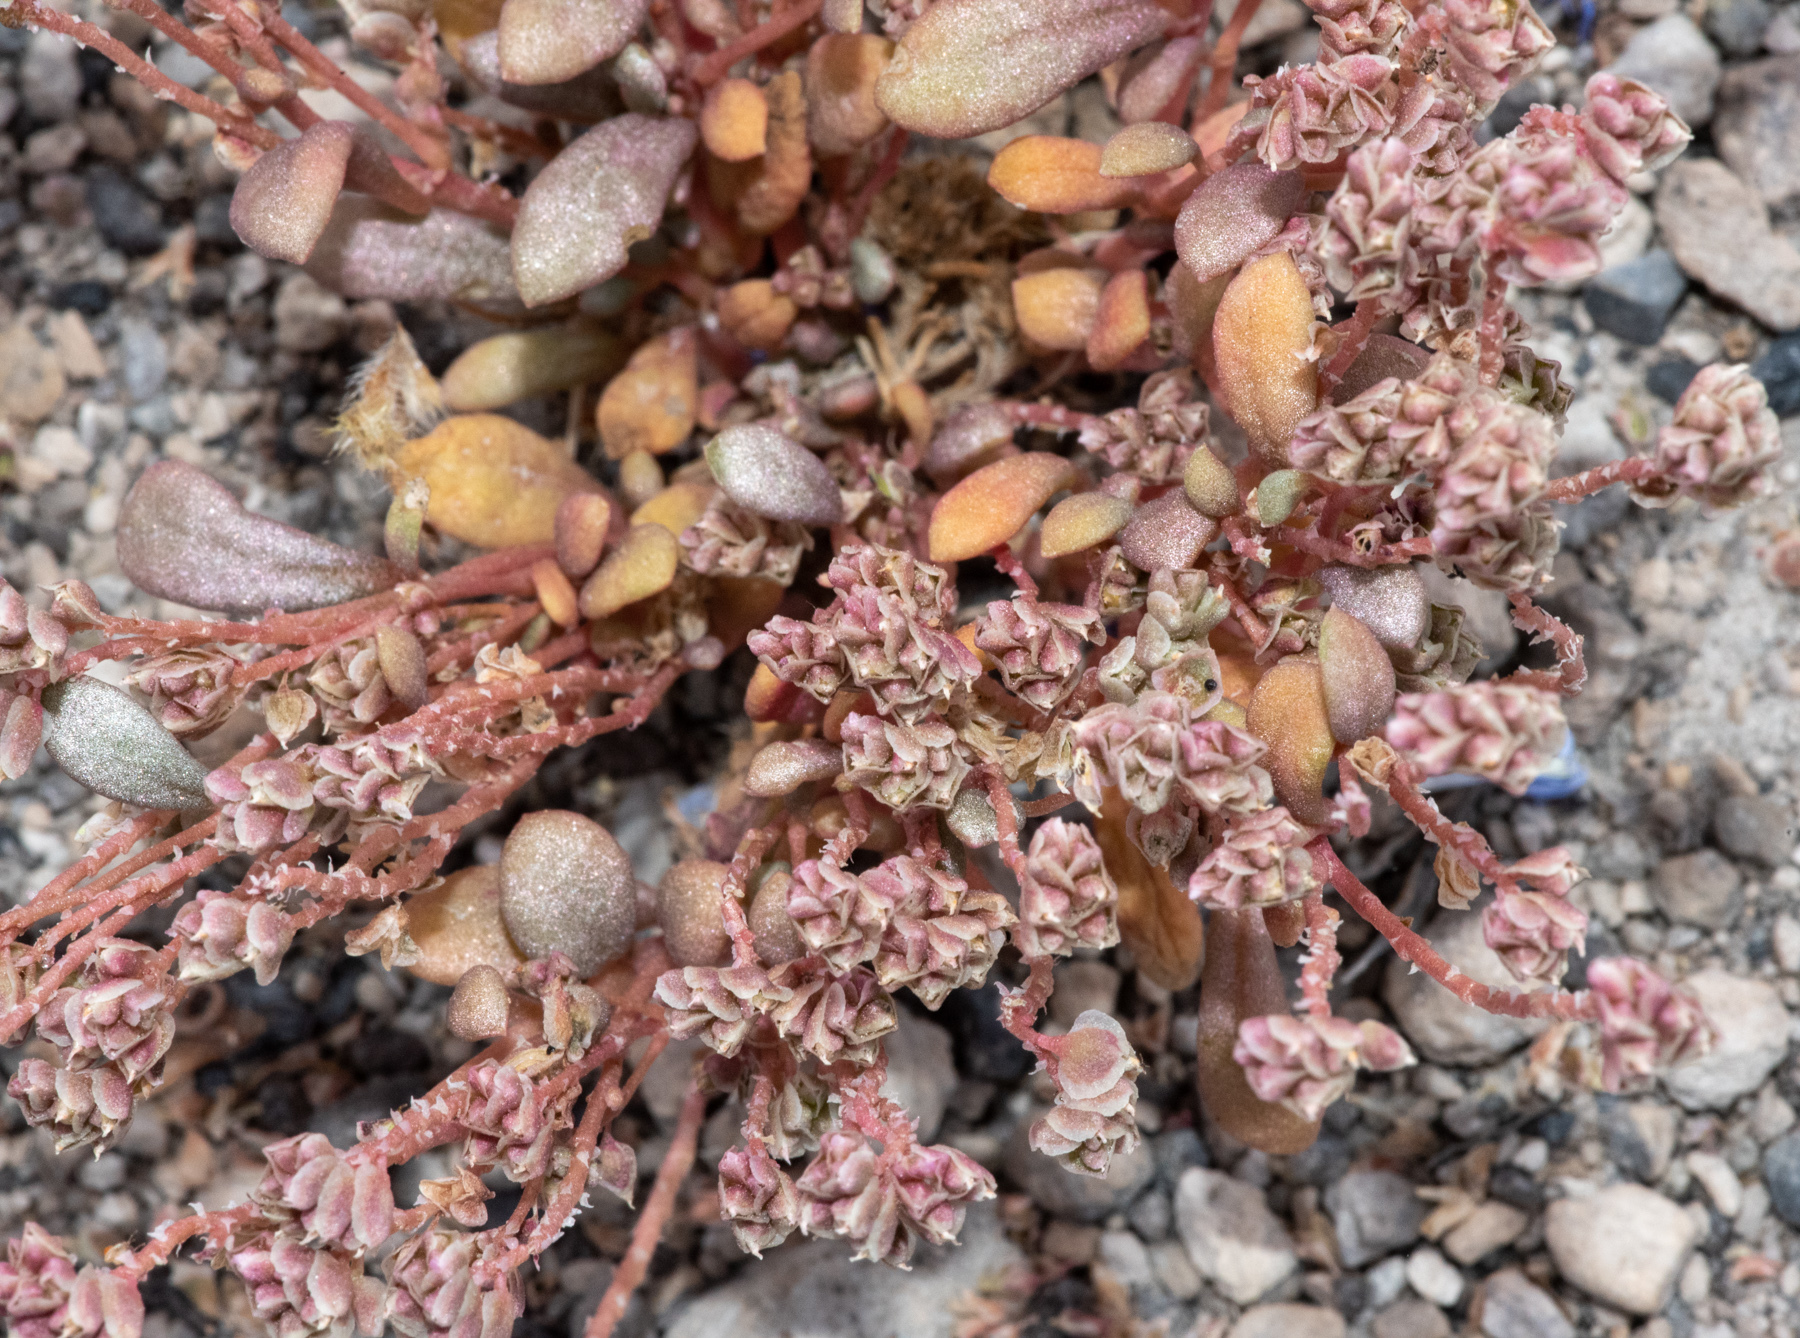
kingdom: Plantae
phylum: Tracheophyta
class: Magnoliopsida
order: Caryophyllales
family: Montiaceae
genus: Calyptridium
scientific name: Calyptridium roseum
